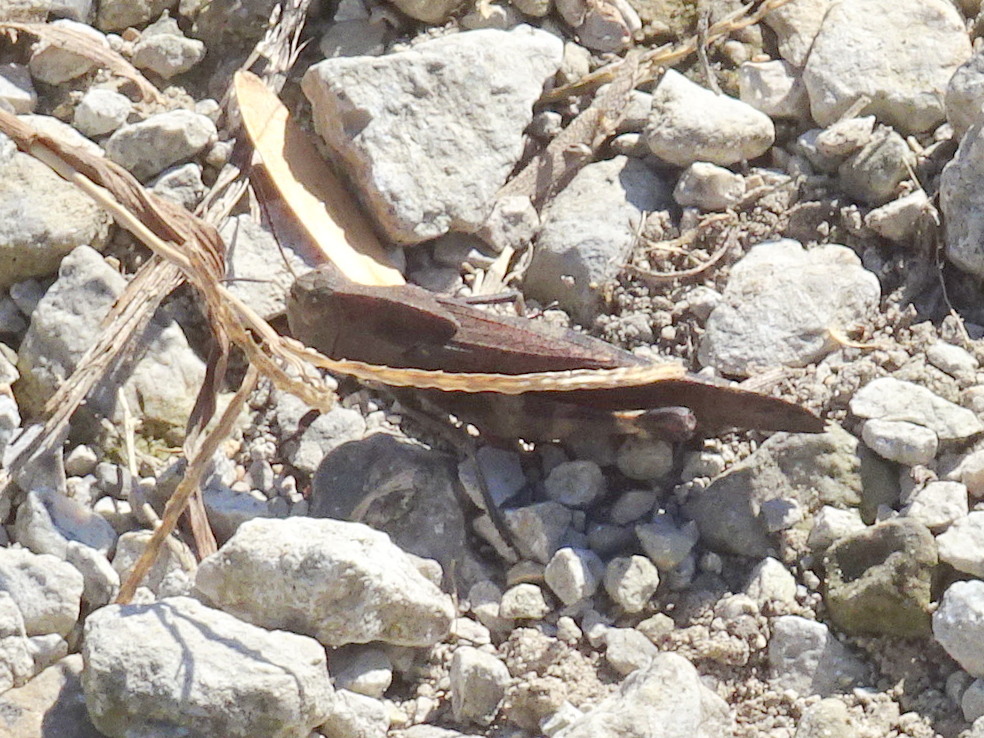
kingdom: Animalia
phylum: Arthropoda
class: Insecta
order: Orthoptera
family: Acrididae
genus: Arphia
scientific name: Arphia xanthoptera
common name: Autumn yellow-winged grasshopper
